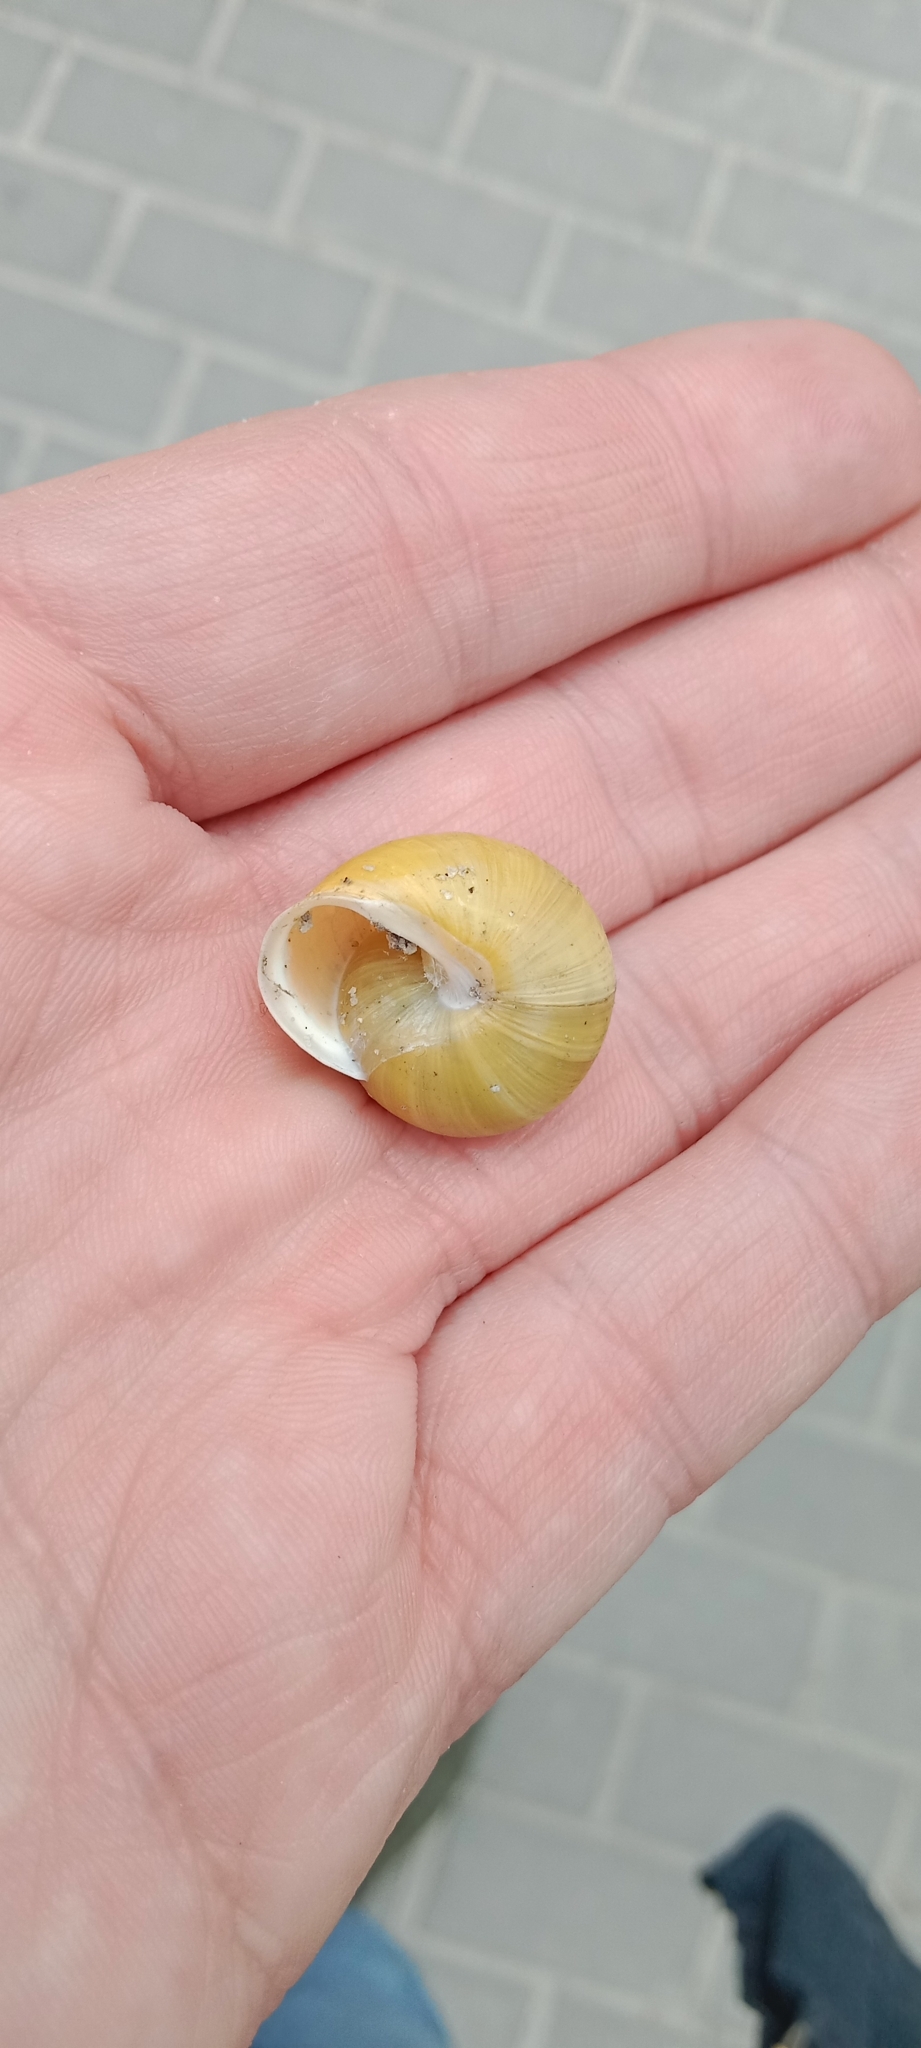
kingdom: Animalia
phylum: Mollusca
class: Gastropoda
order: Stylommatophora
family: Helicidae
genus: Cepaea
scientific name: Cepaea hortensis
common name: White-lip gardensnail
